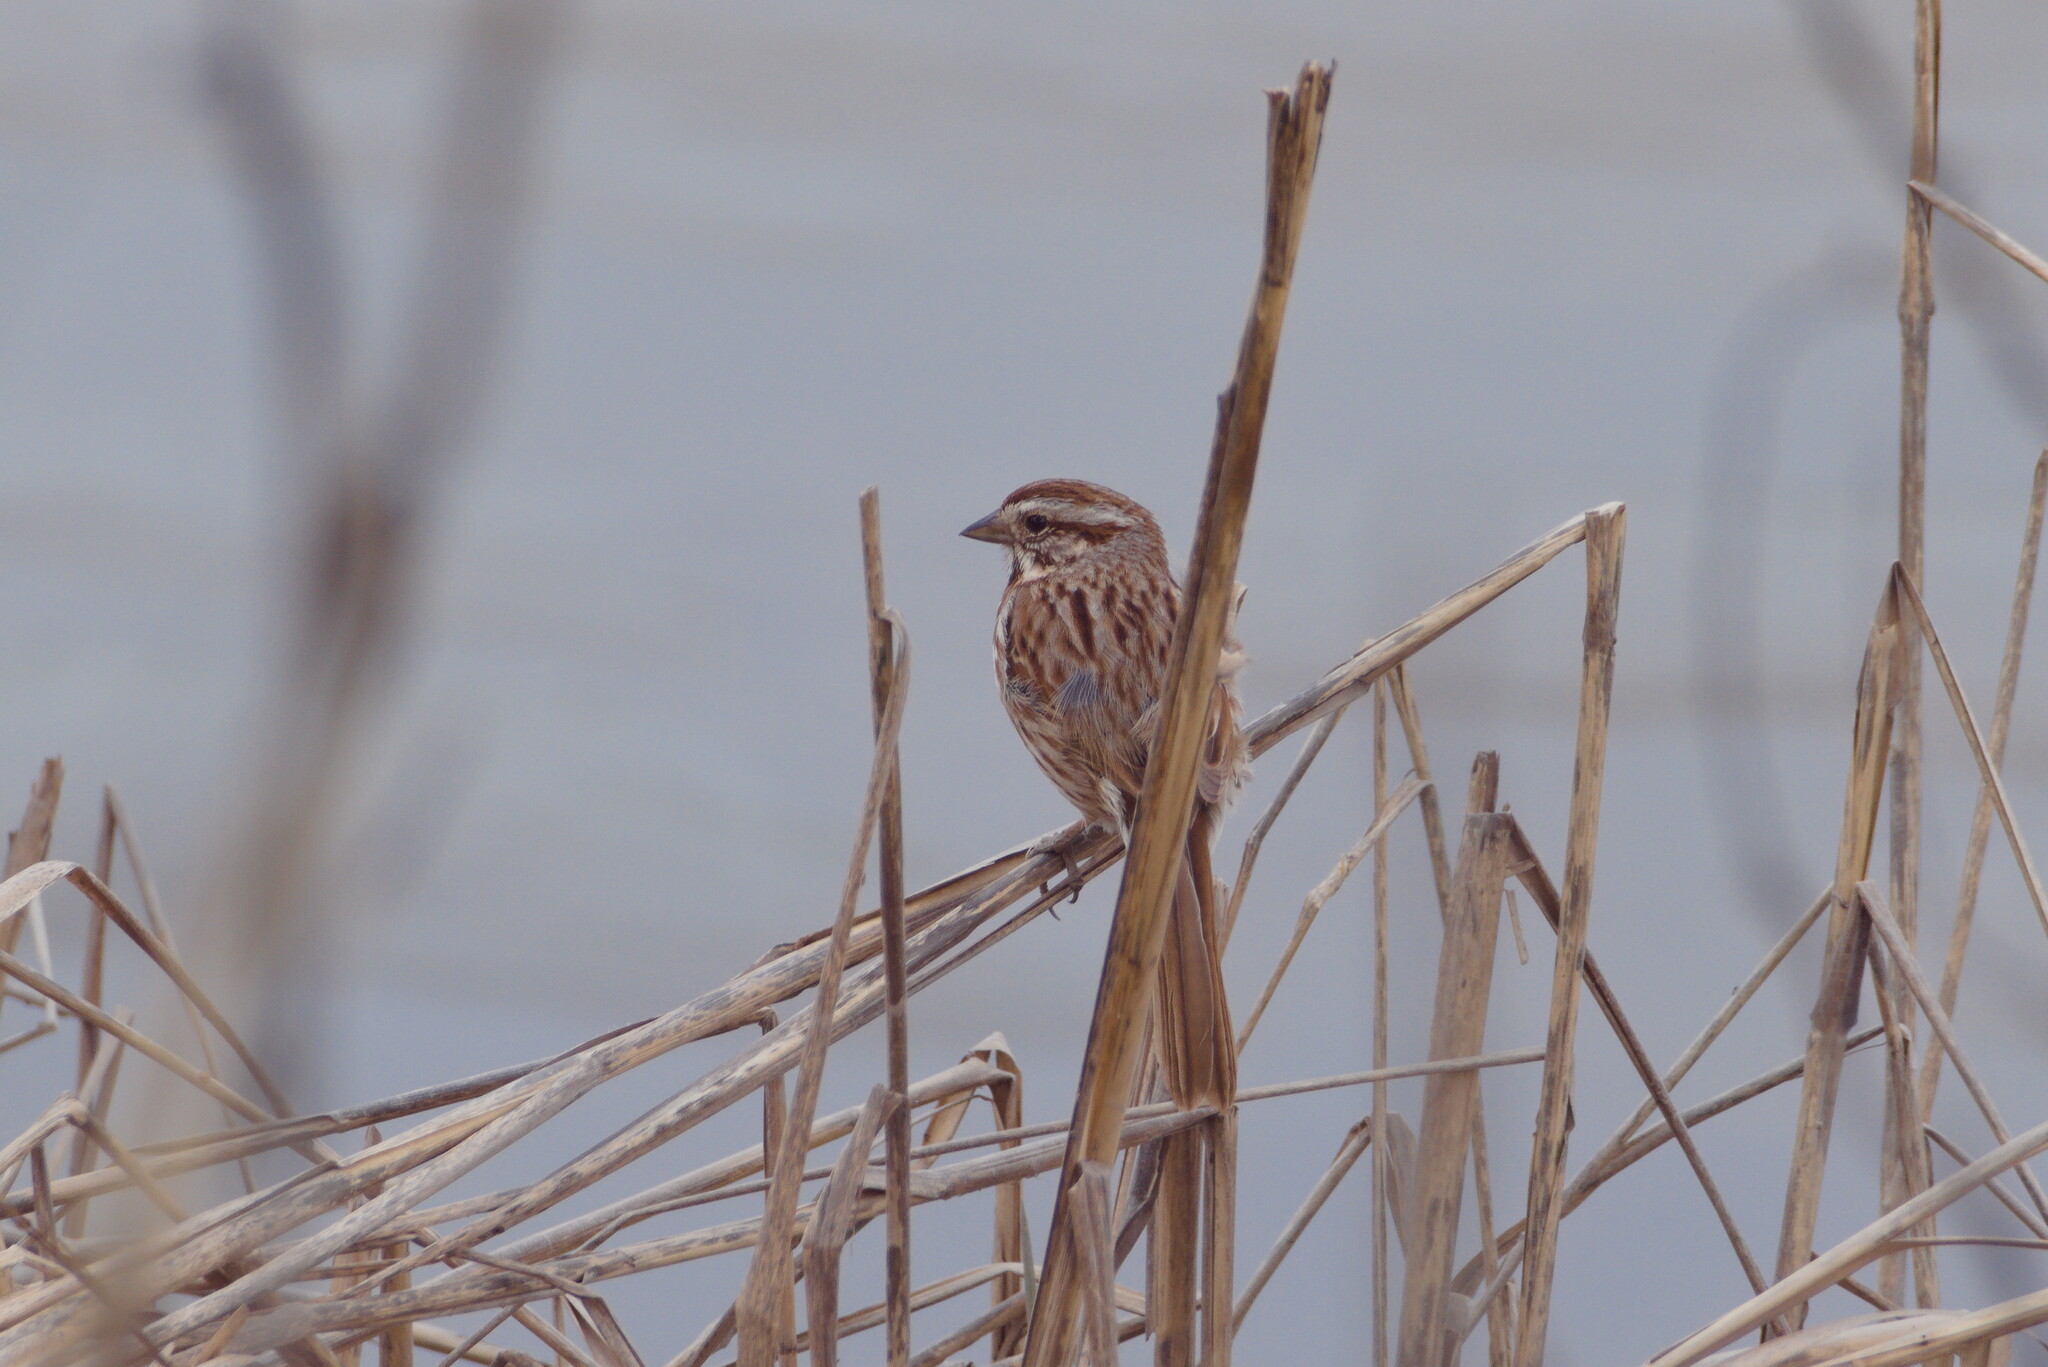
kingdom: Animalia
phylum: Chordata
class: Aves
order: Passeriformes
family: Passerellidae
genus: Melospiza
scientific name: Melospiza melodia
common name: Song sparrow
